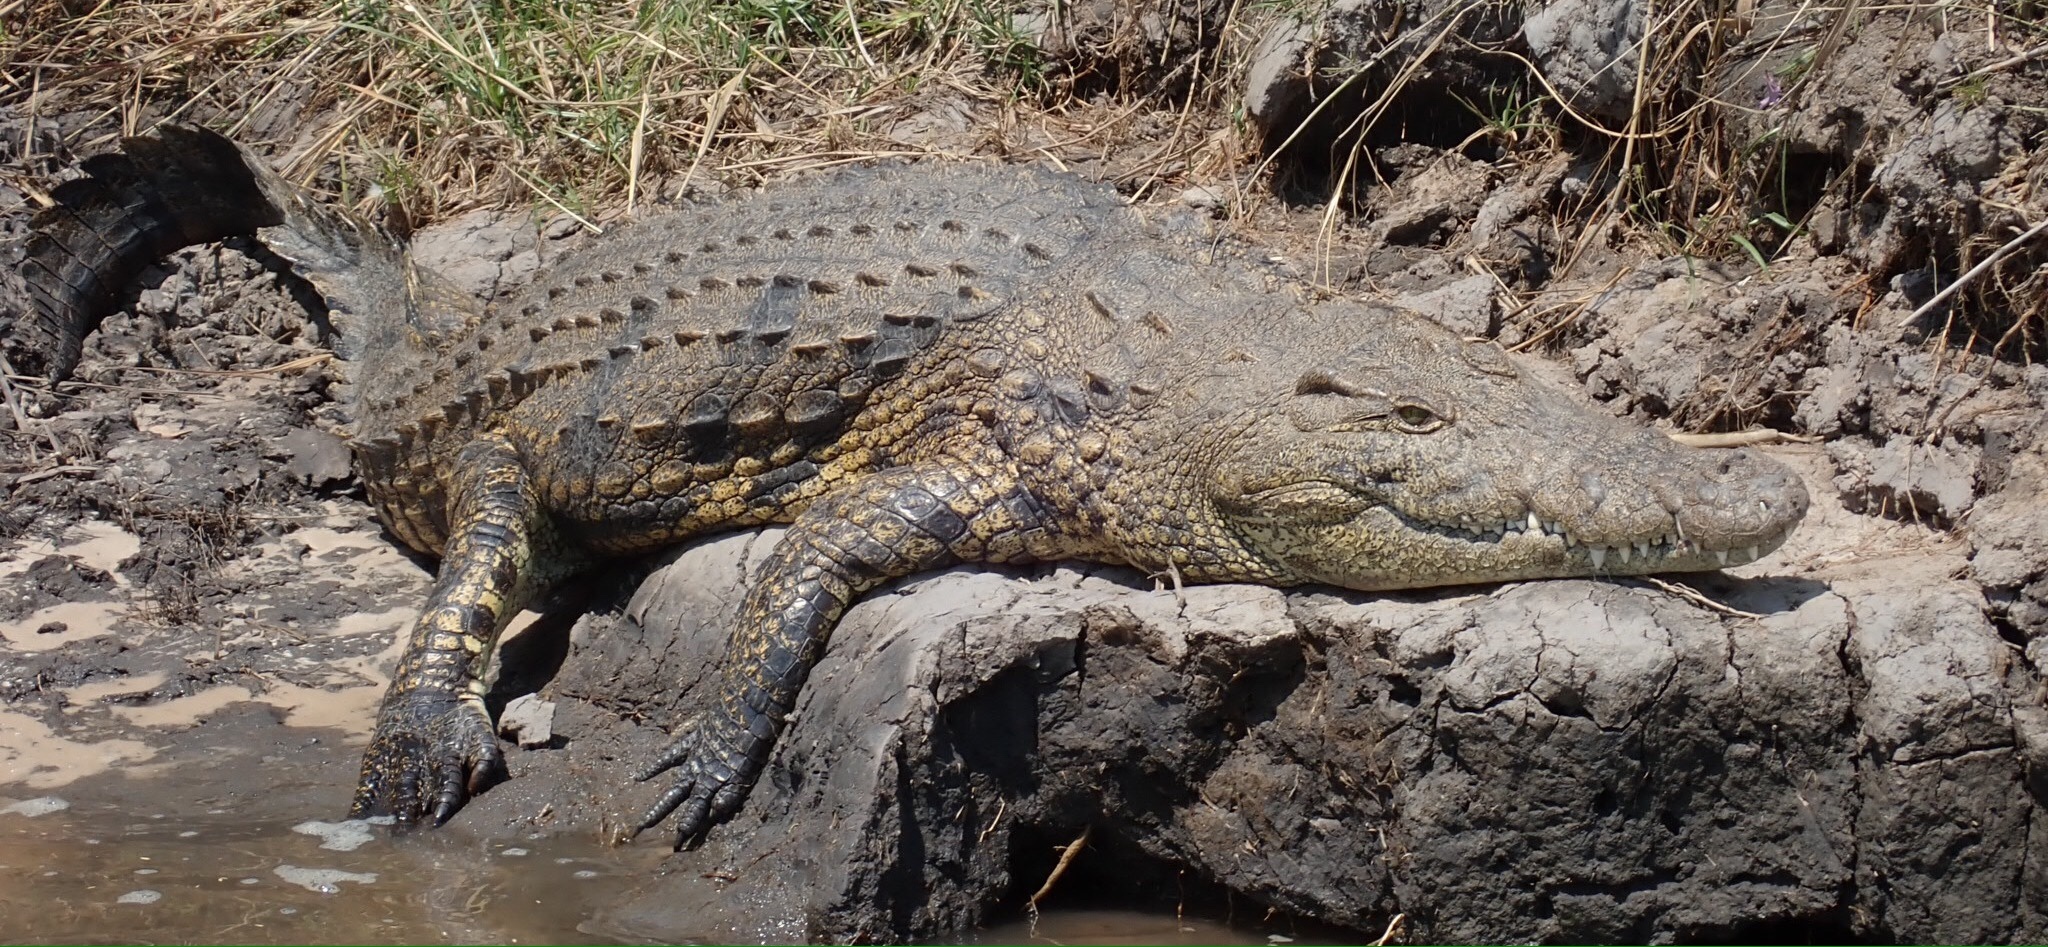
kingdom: Animalia
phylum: Chordata
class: Crocodylia
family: Crocodylidae
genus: Crocodylus
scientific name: Crocodylus niloticus
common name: Nile crocodile
